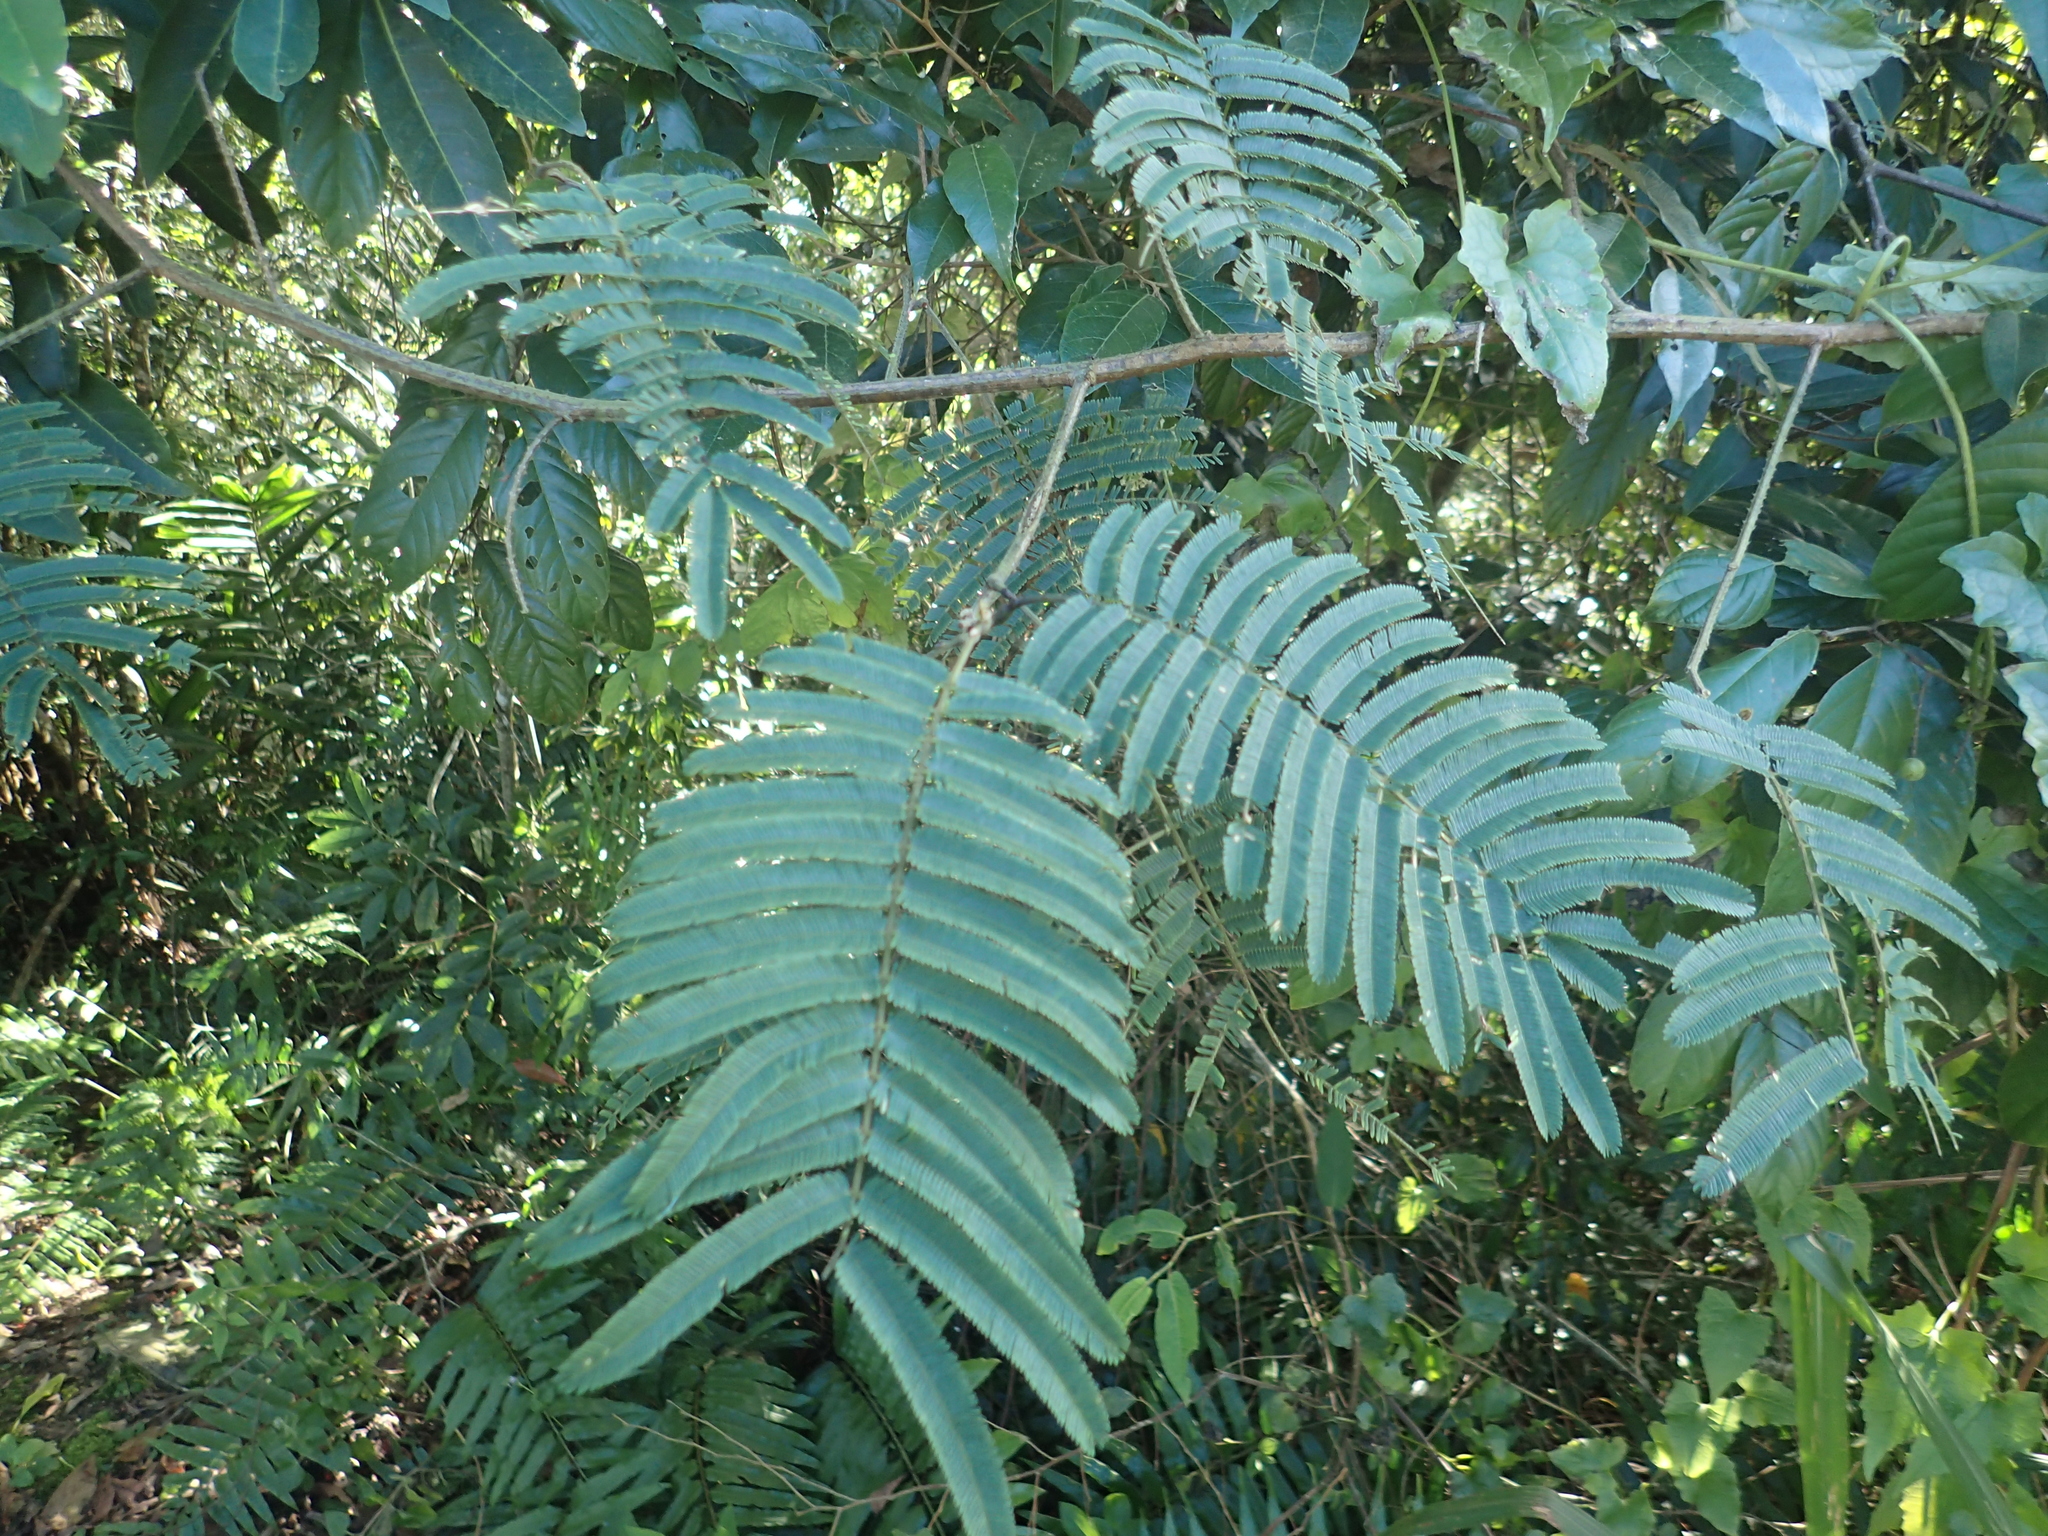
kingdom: Plantae
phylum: Tracheophyta
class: Magnoliopsida
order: Fabales
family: Fabaceae
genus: Senegalia
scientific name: Senegalia merrillii
